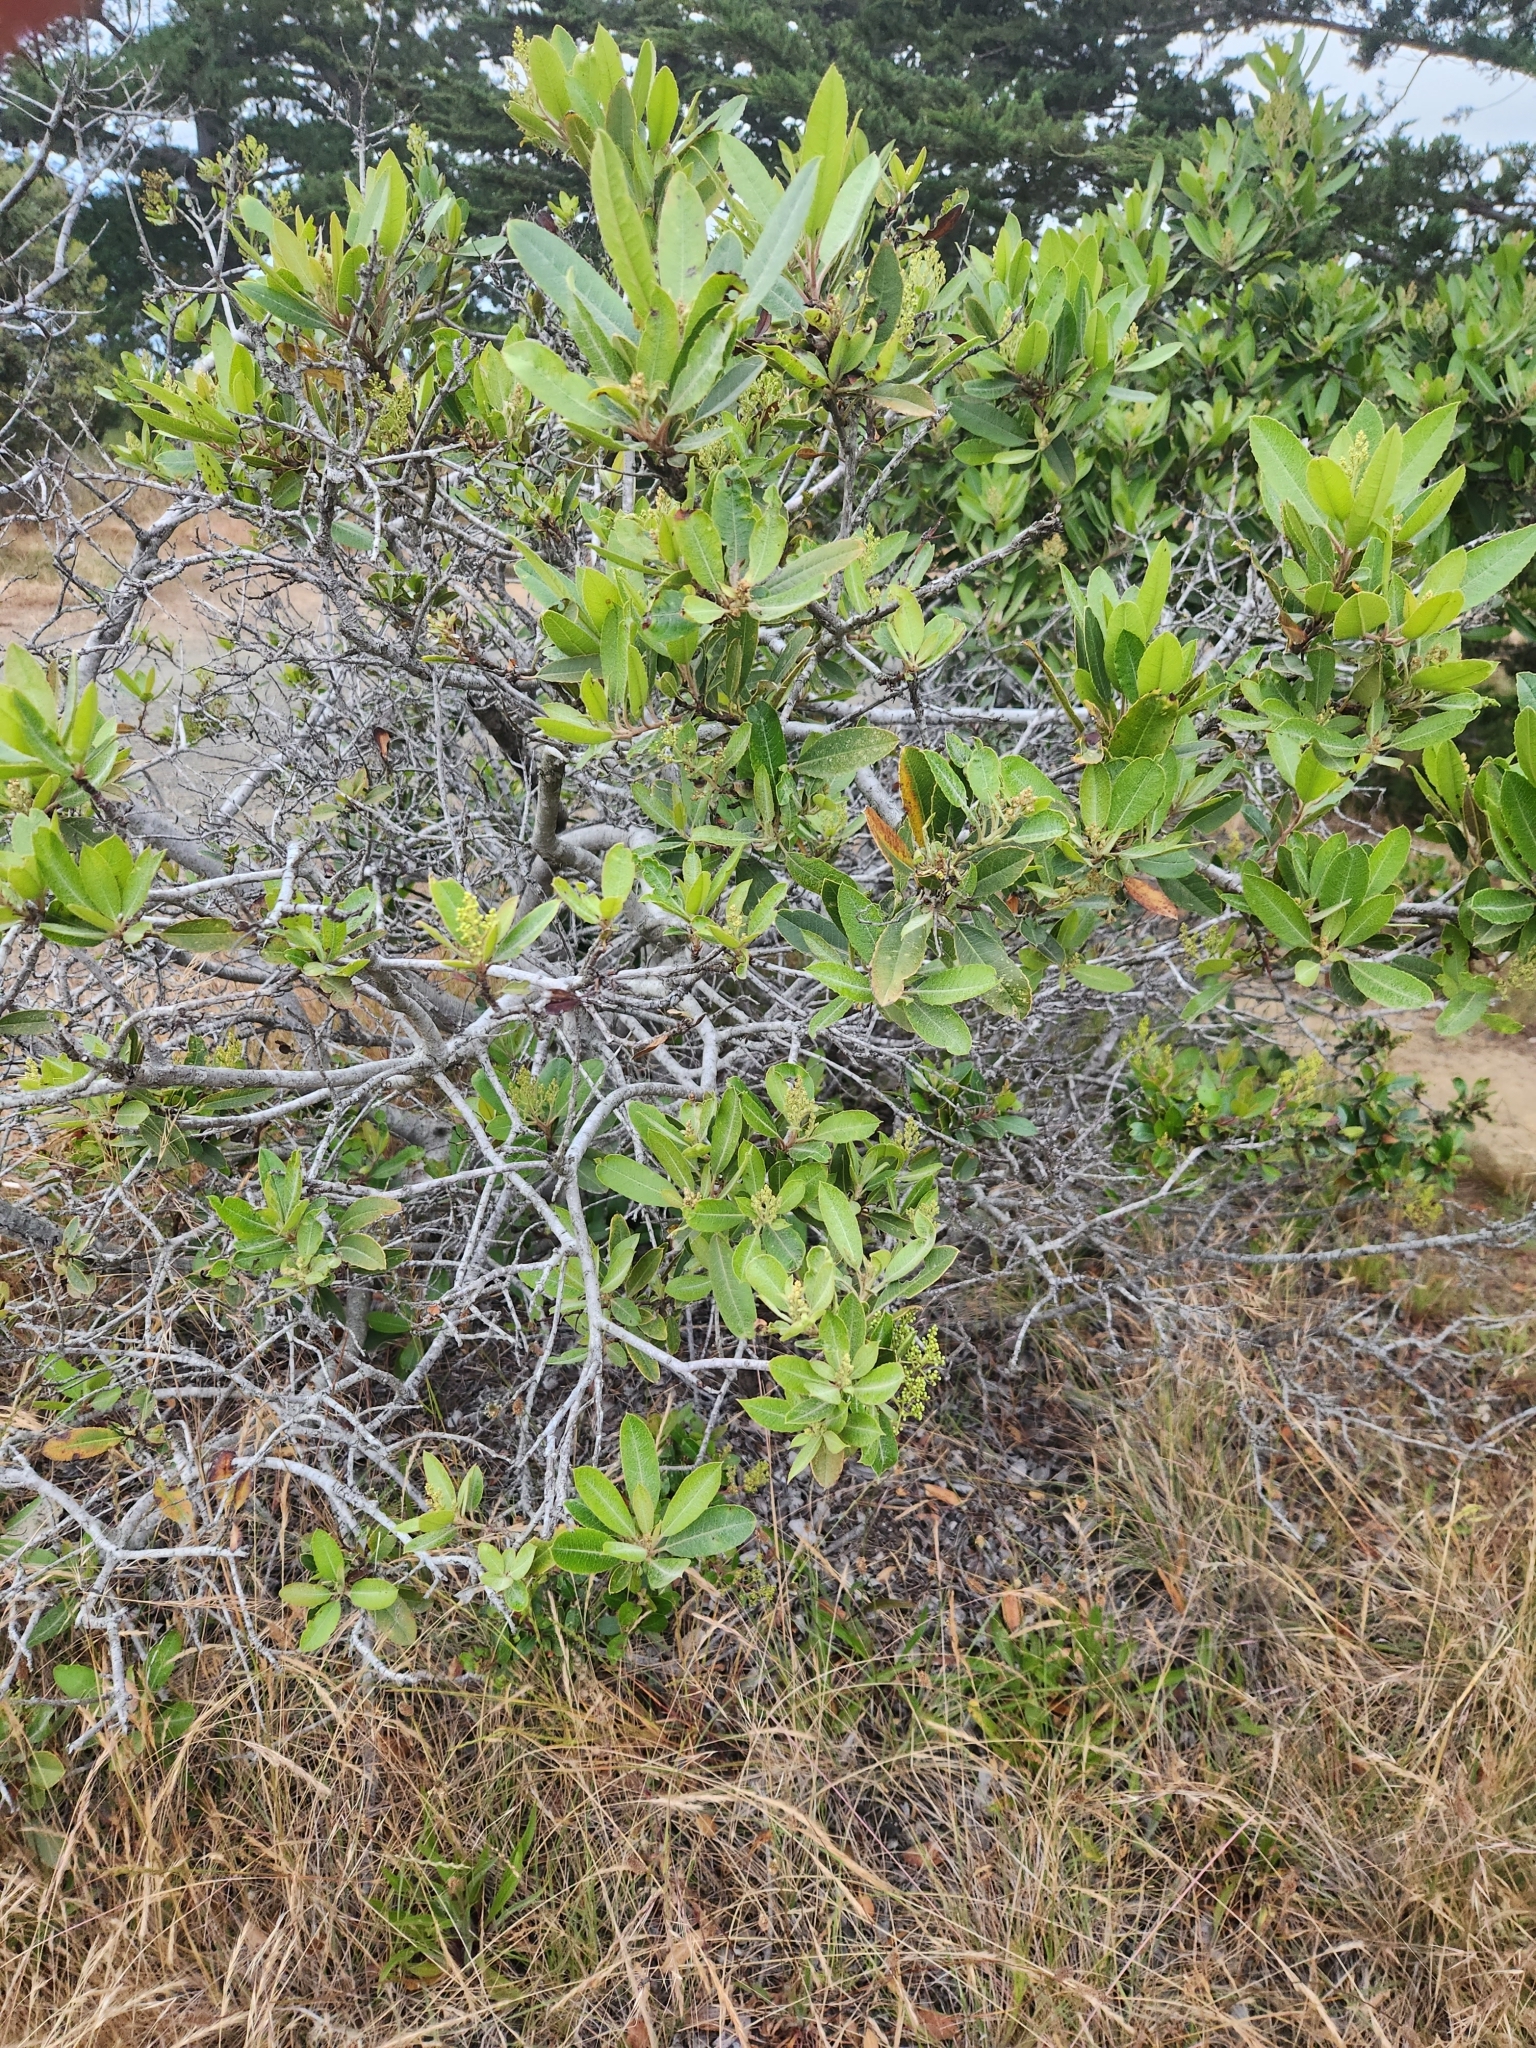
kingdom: Plantae
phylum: Tracheophyta
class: Magnoliopsida
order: Rosales
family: Rosaceae
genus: Heteromeles
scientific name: Heteromeles arbutifolia
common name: California-holly
